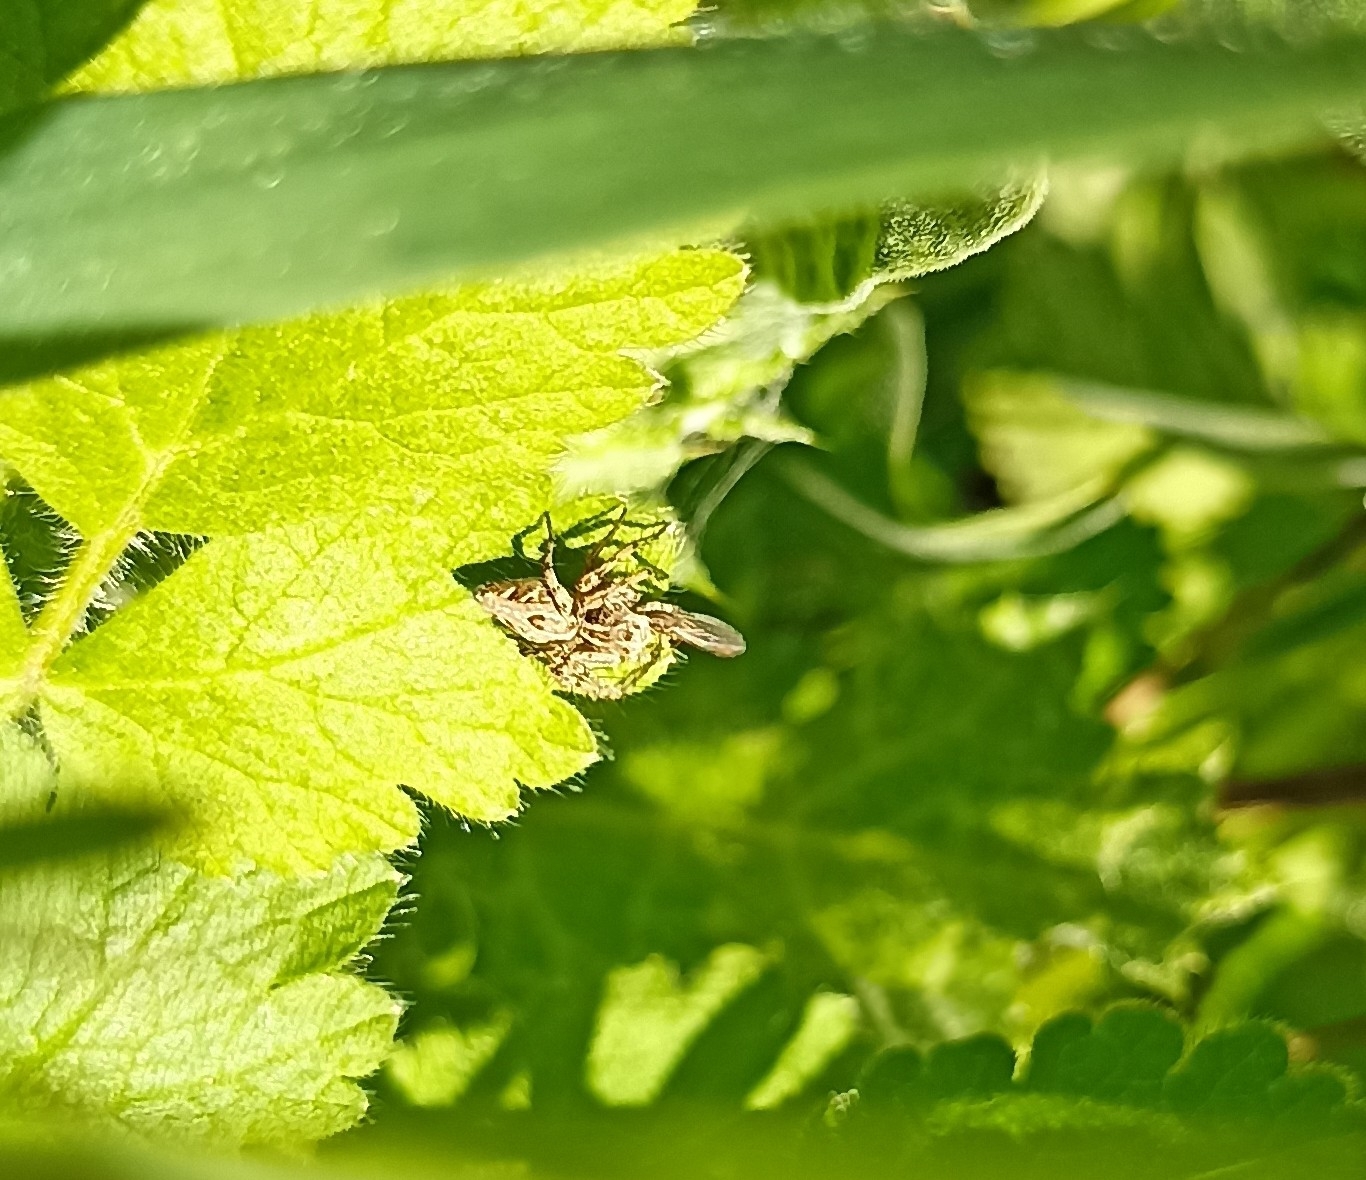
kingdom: Animalia
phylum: Arthropoda
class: Arachnida
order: Araneae
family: Oxyopidae
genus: Oxyopes
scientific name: Oxyopes heterophthalmus
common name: Lynx spider
